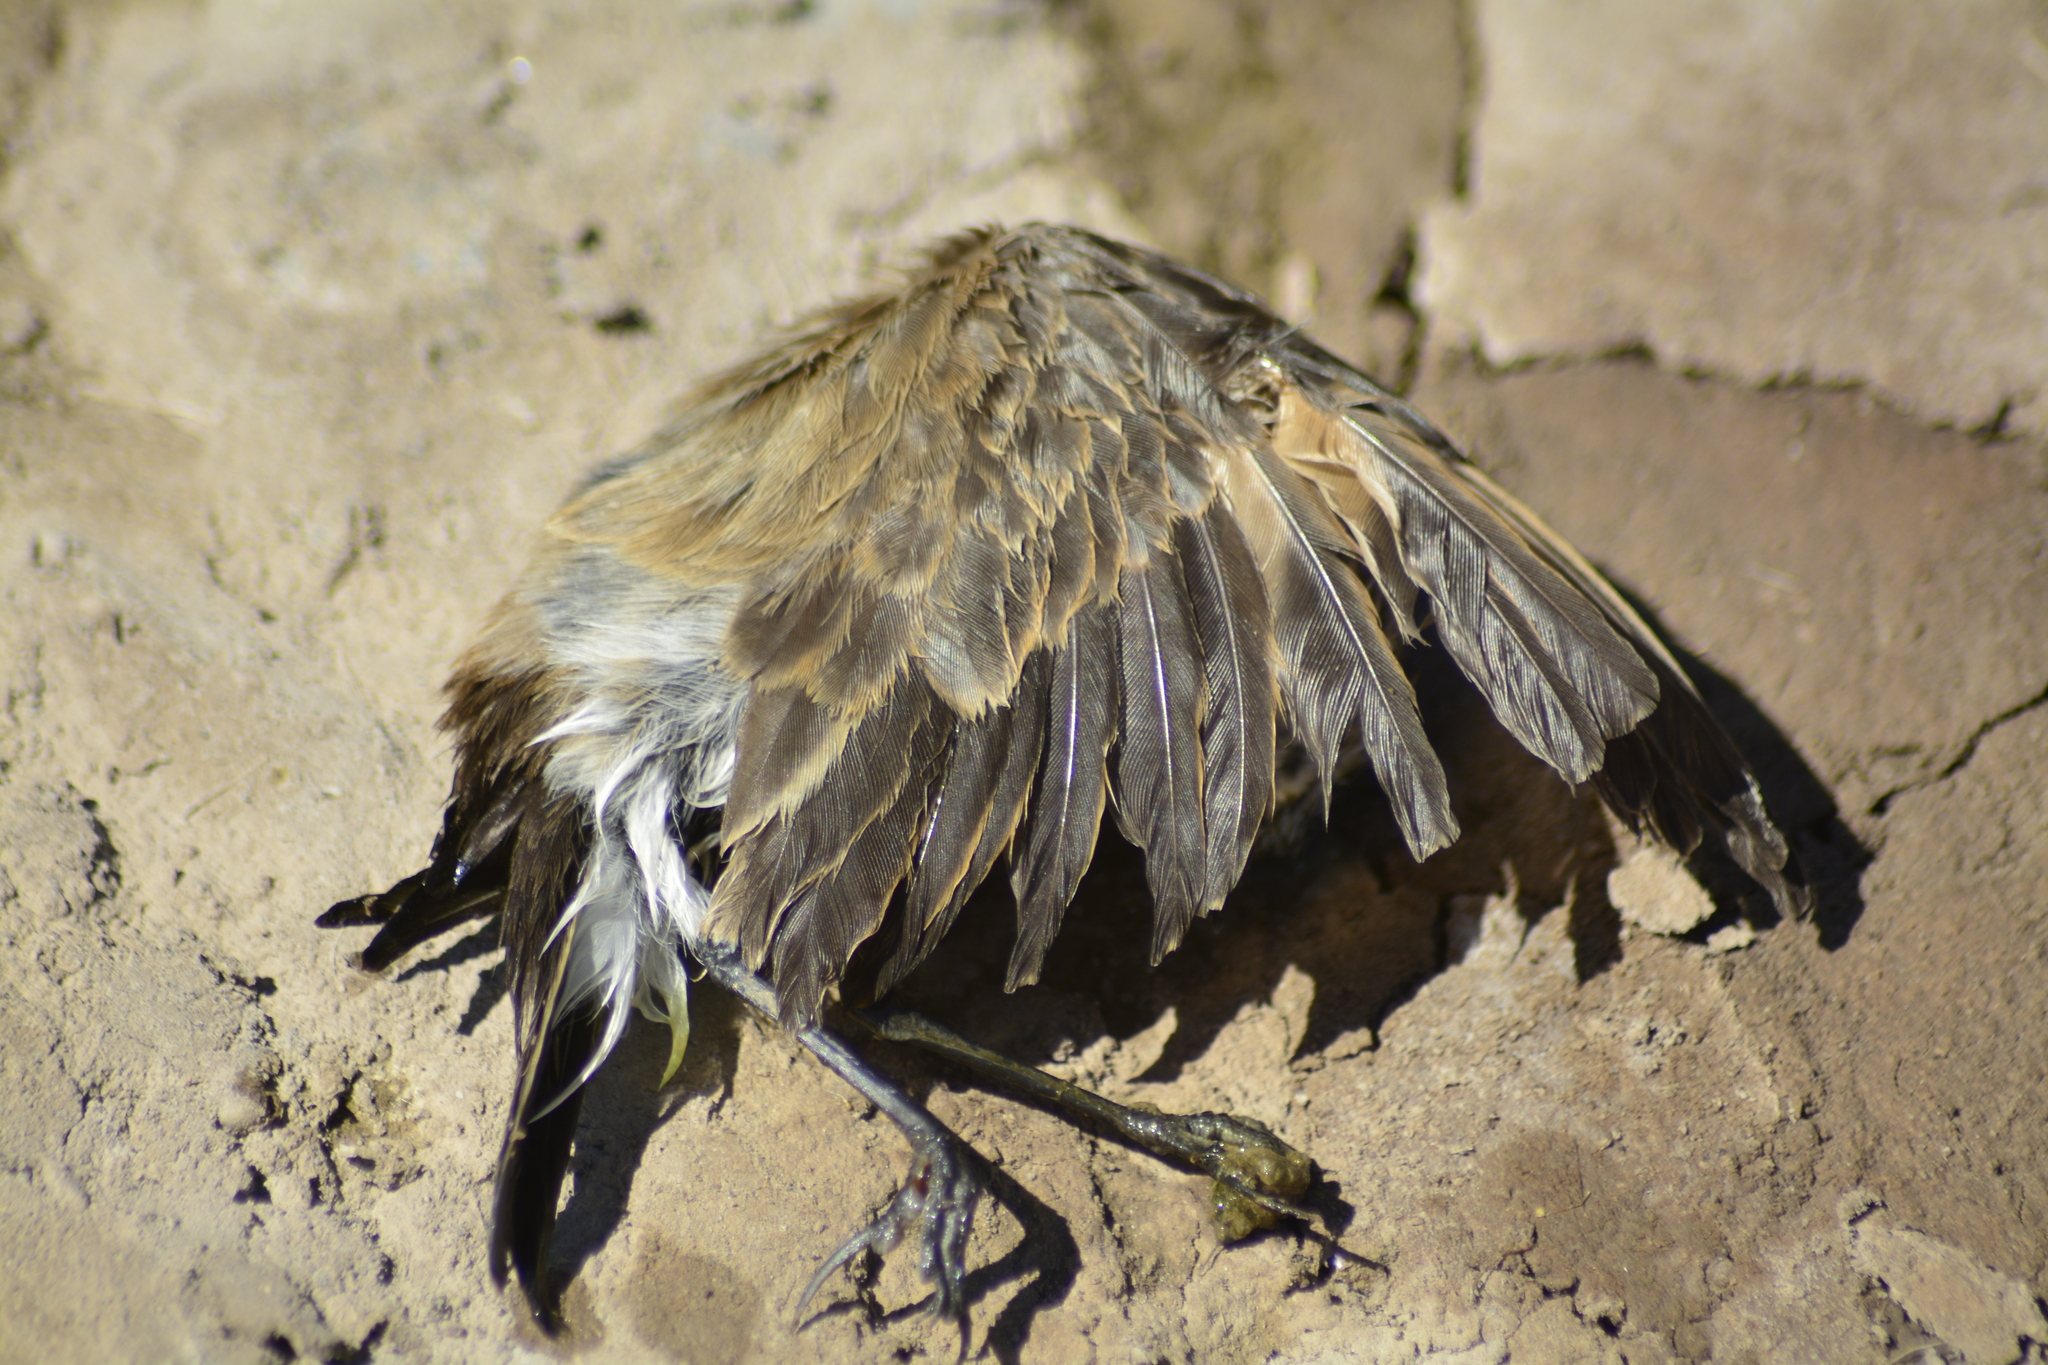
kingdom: Animalia
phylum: Chordata
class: Aves
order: Passeriformes
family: Tyrannidae
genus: Lessonia
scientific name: Lessonia rufa
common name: Austral negrito
